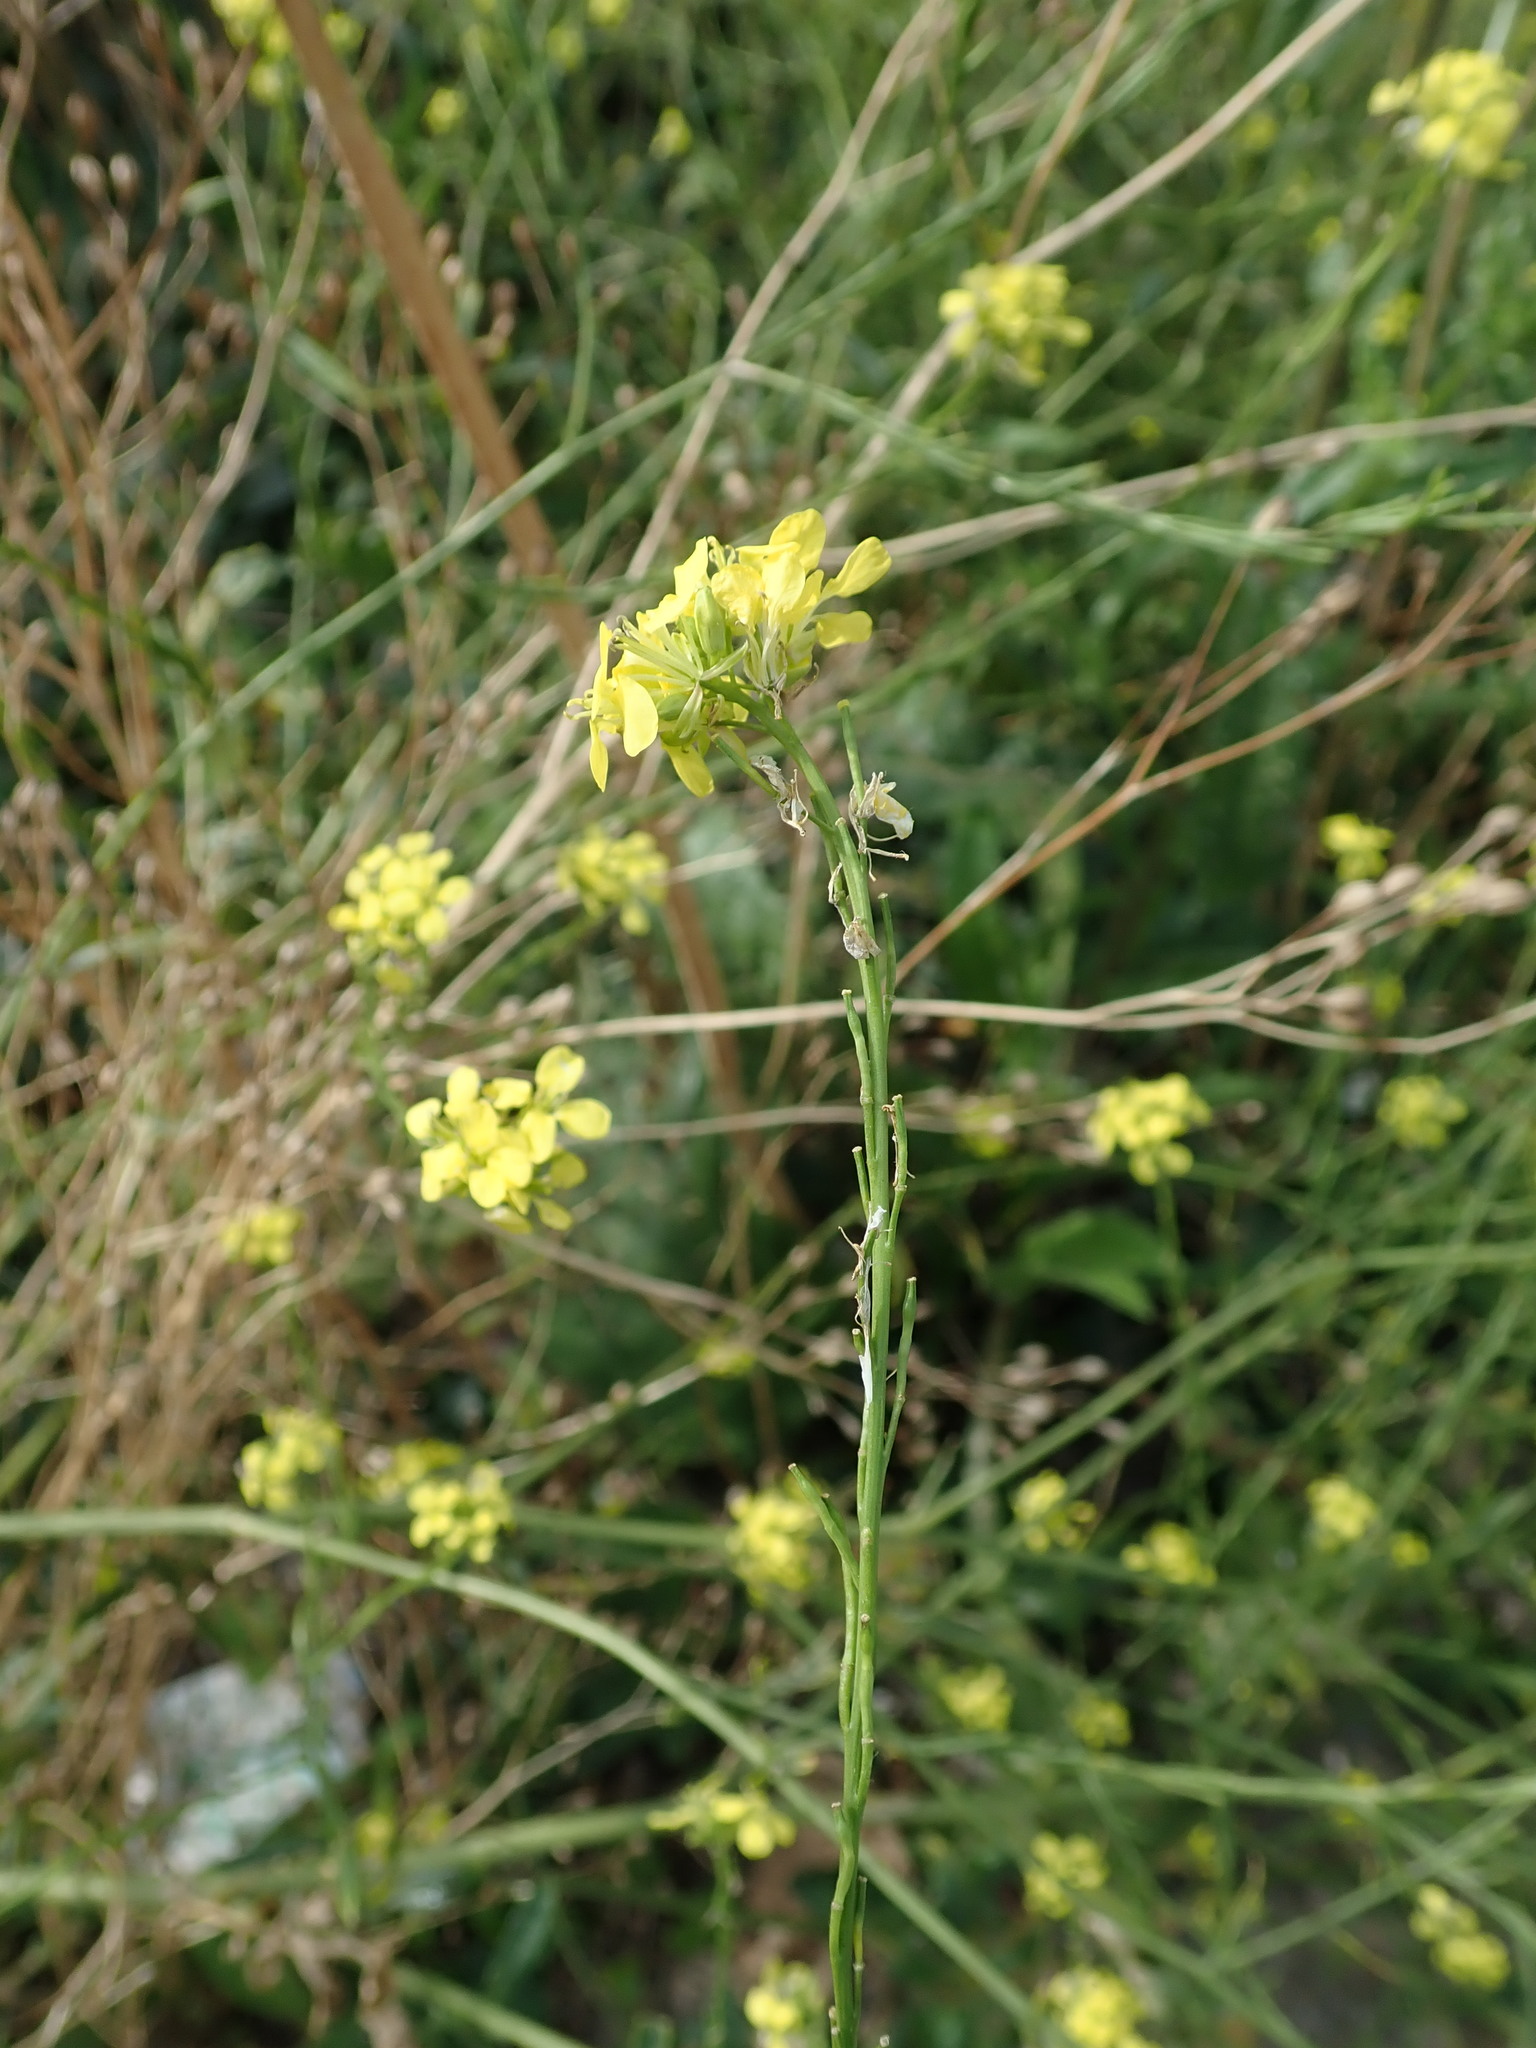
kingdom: Plantae
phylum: Tracheophyta
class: Magnoliopsida
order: Brassicales
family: Brassicaceae
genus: Hirschfeldia
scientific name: Hirschfeldia incana
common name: Hoary mustard
